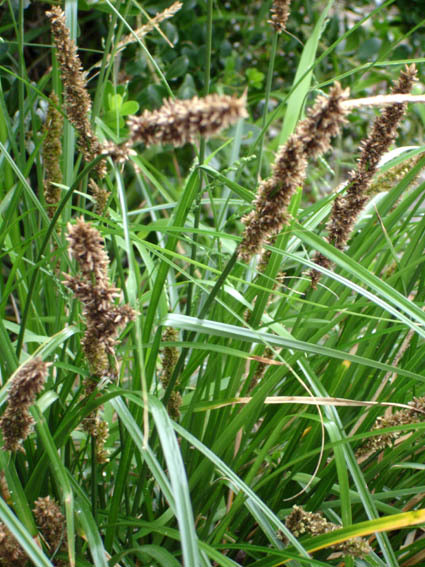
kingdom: Plantae
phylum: Tracheophyta
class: Liliopsida
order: Poales
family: Cyperaceae
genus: Carex
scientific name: Carex appressa
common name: Tussock sedge
